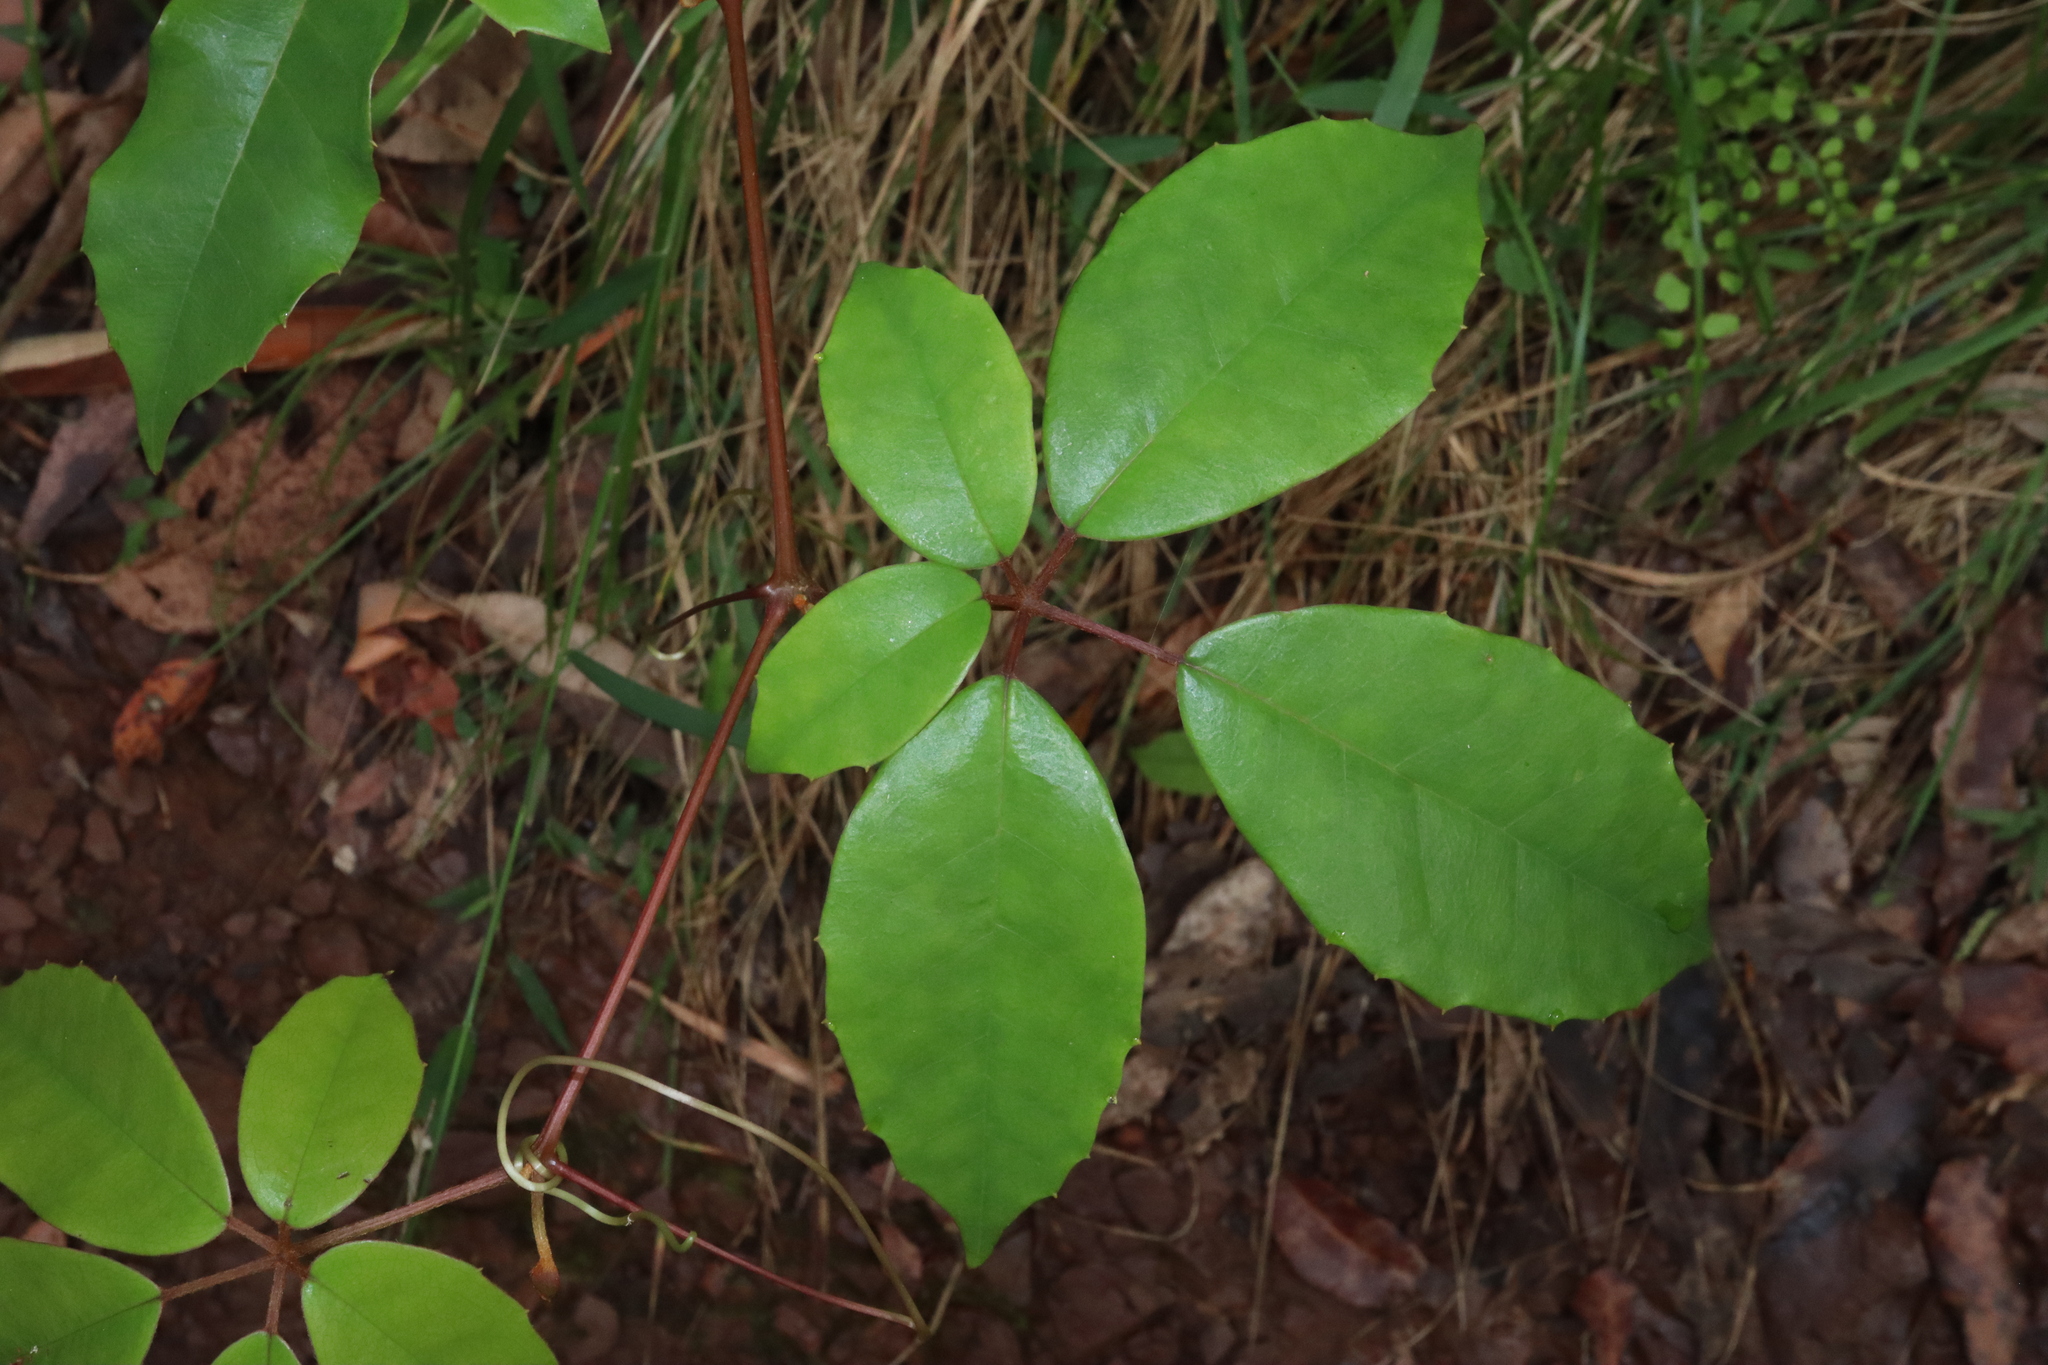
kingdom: Plantae
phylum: Tracheophyta
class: Magnoliopsida
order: Vitales
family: Vitaceae
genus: Nothocissus
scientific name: Nothocissus hypoglauca
